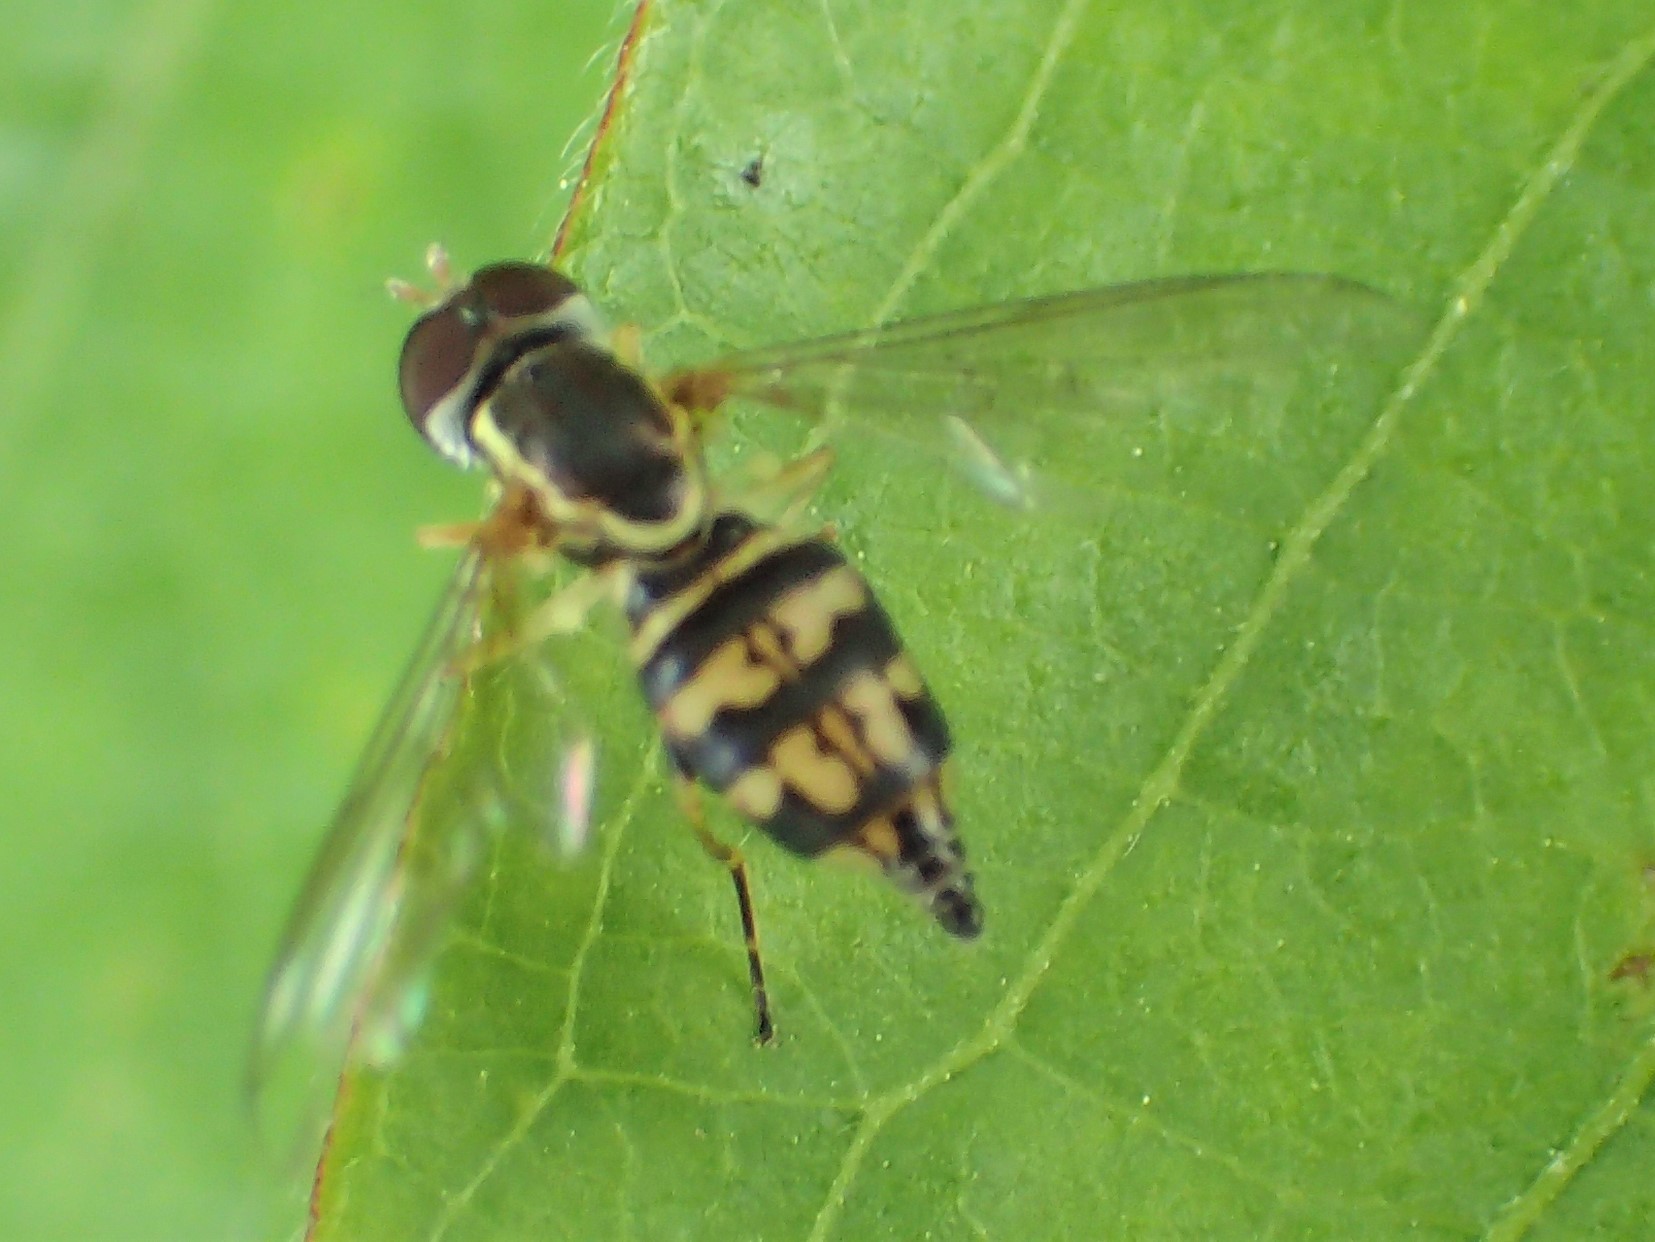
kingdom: Animalia
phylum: Arthropoda
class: Insecta
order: Diptera
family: Syrphidae
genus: Toxomerus
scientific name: Toxomerus geminatus
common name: Eastern calligrapher
